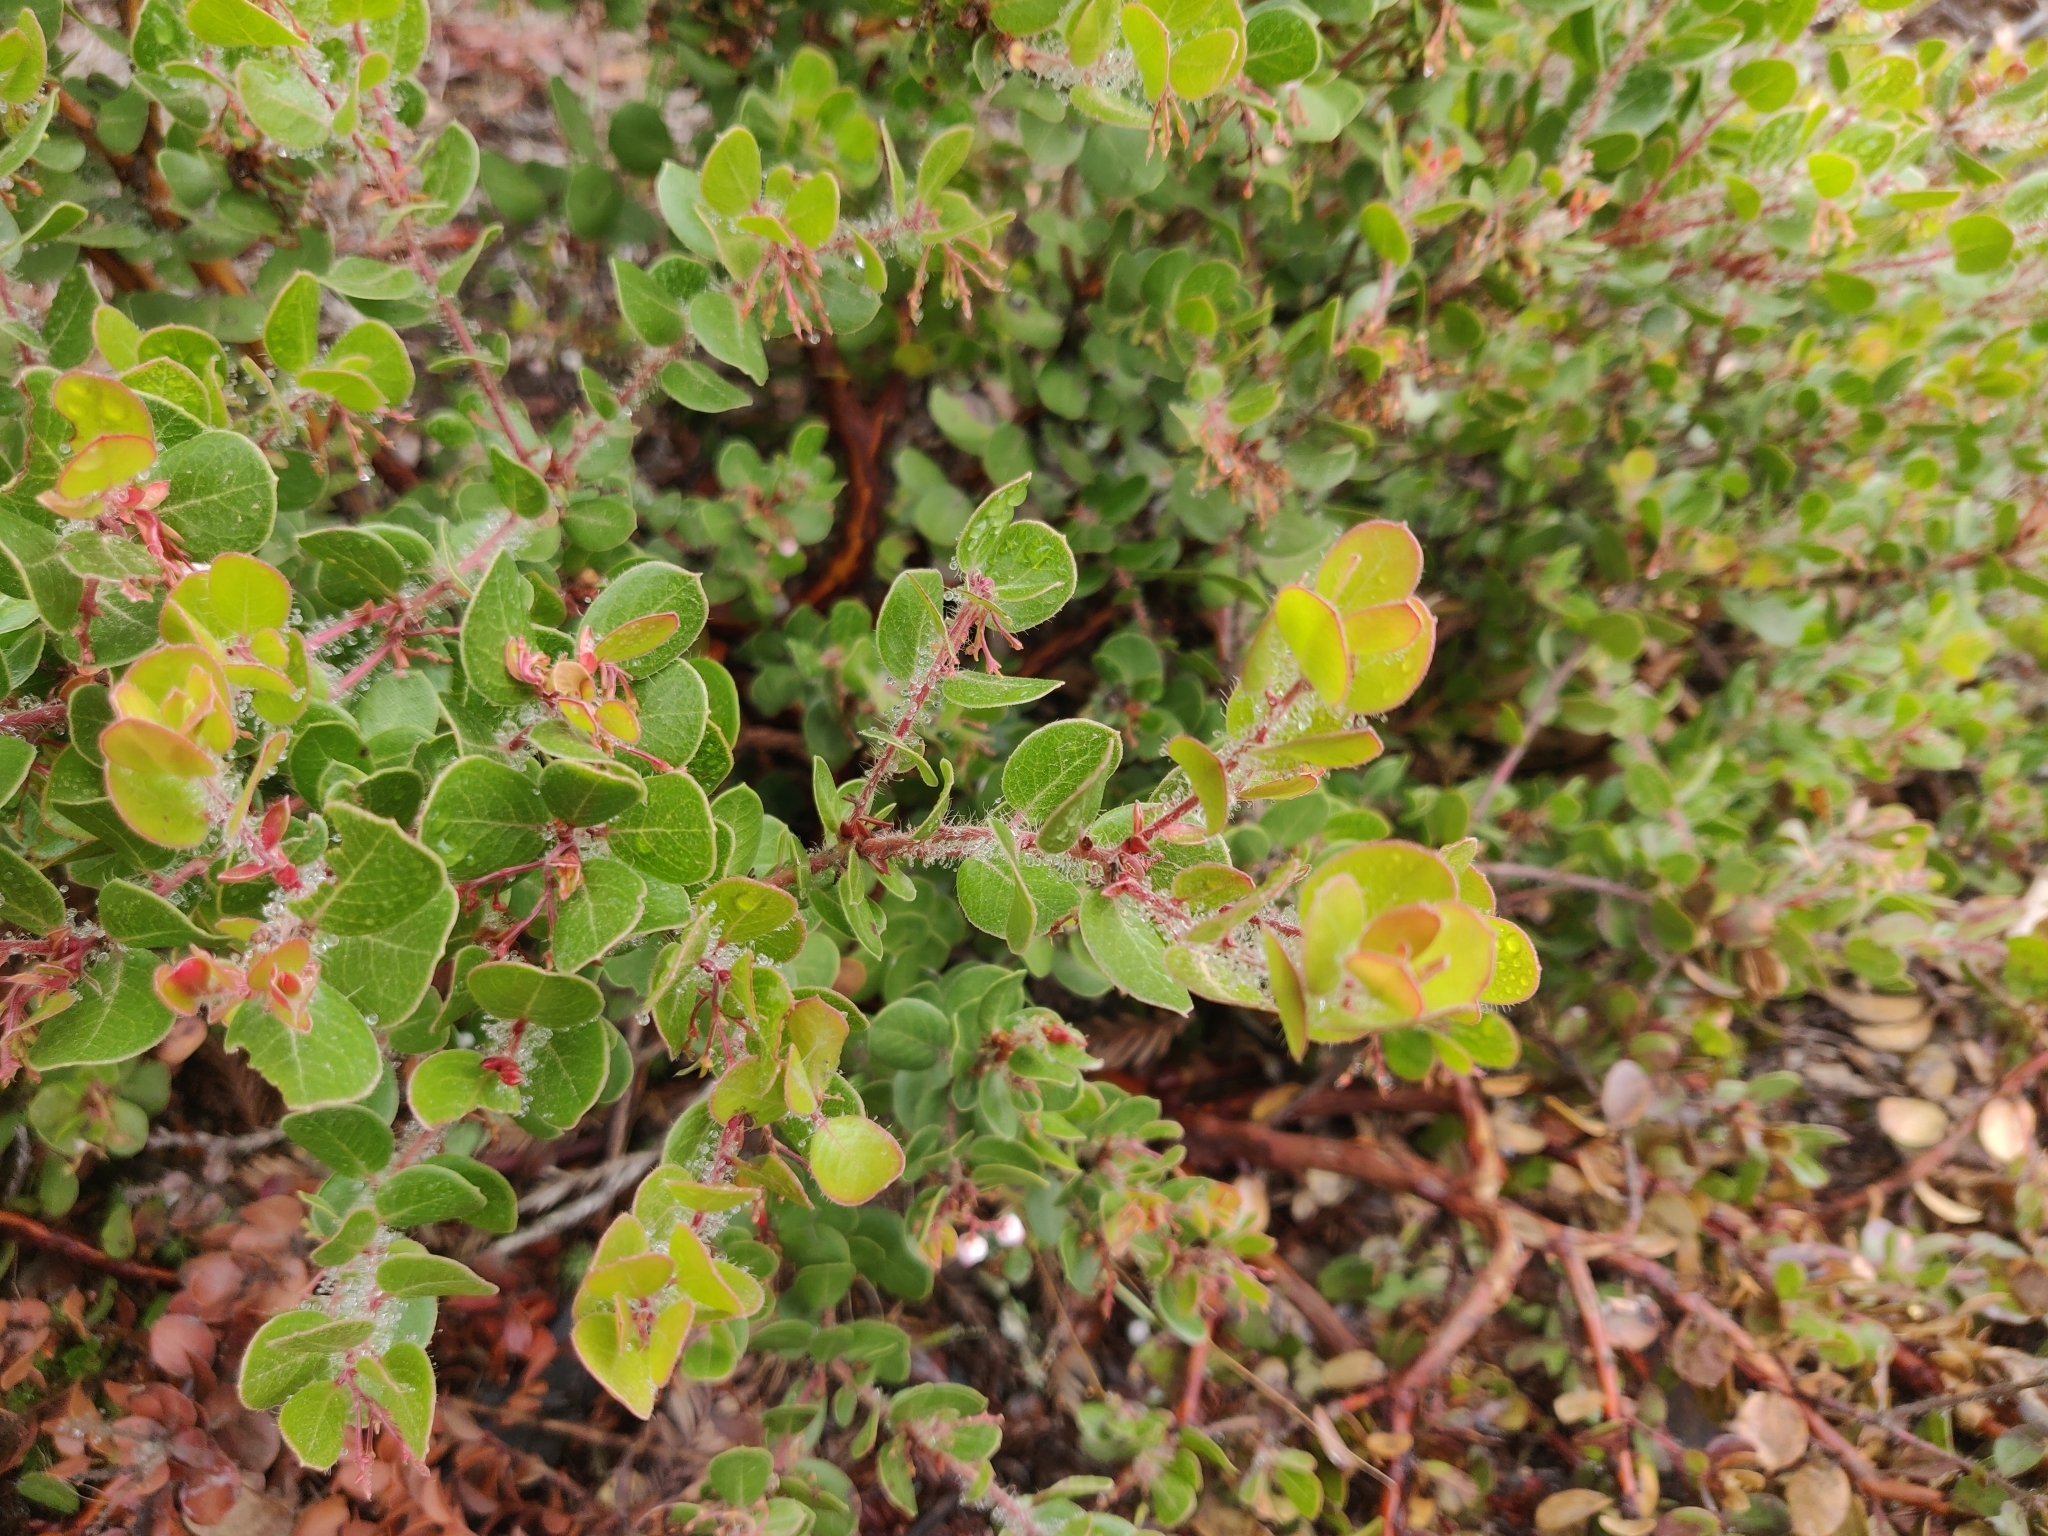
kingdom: Plantae
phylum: Tracheophyta
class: Magnoliopsida
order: Ericales
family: Ericaceae
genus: Arctostaphylos
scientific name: Arctostaphylos nummularia
